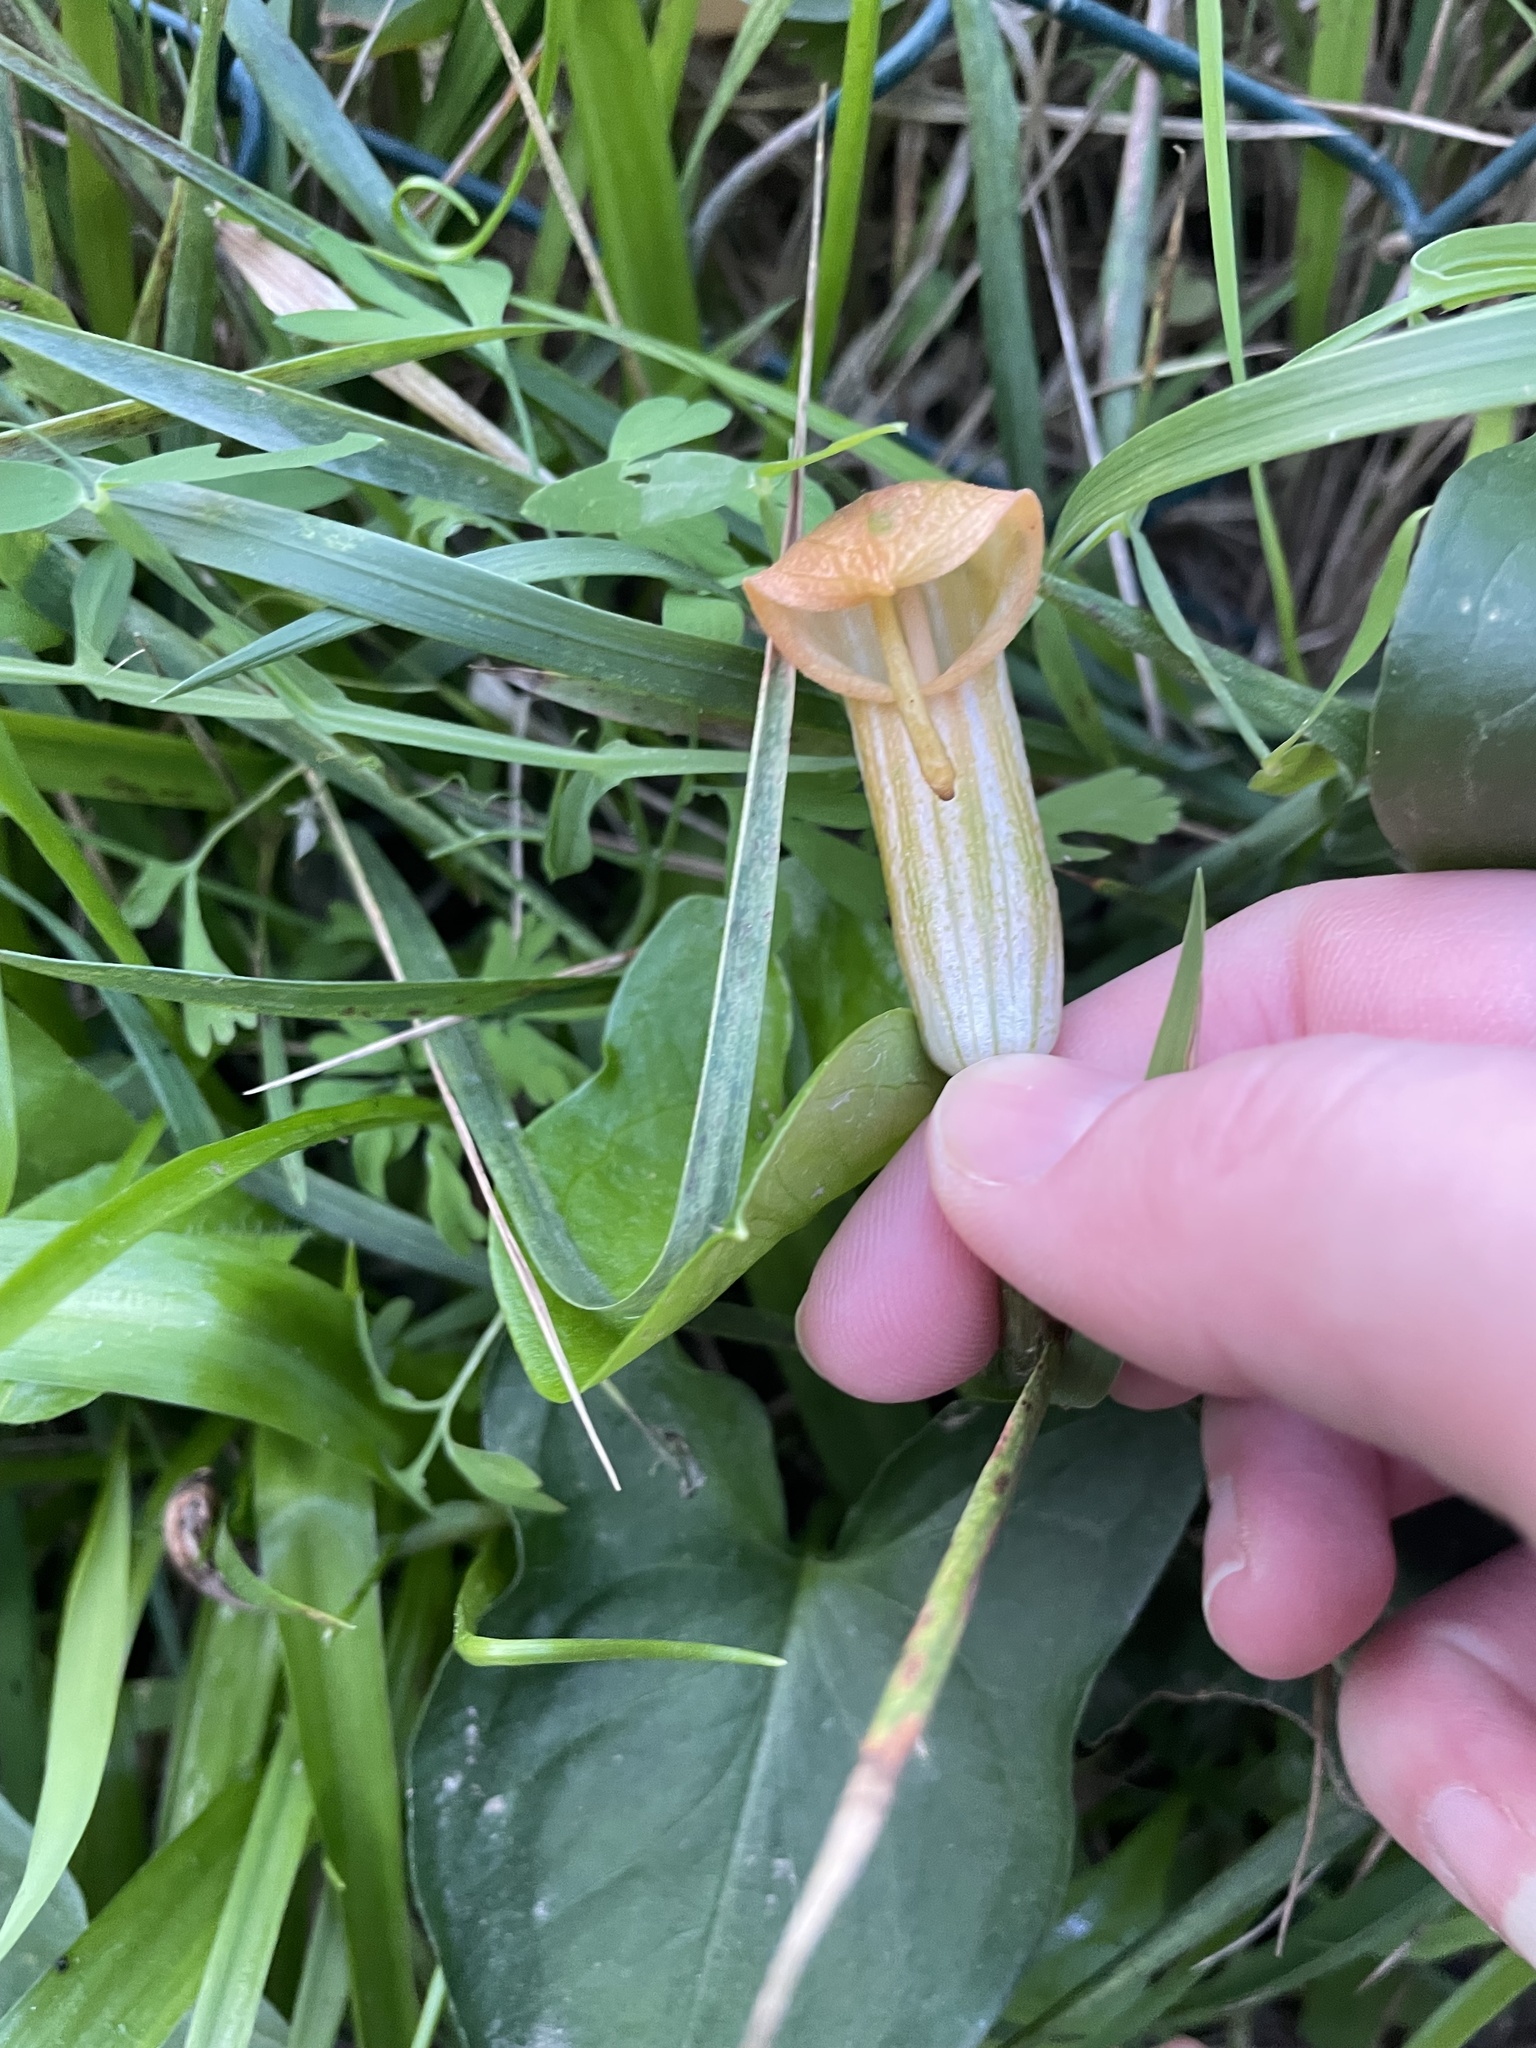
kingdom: Plantae
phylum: Tracheophyta
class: Liliopsida
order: Alismatales
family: Araceae
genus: Arisarum
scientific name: Arisarum vulgare
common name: Common arisarum
